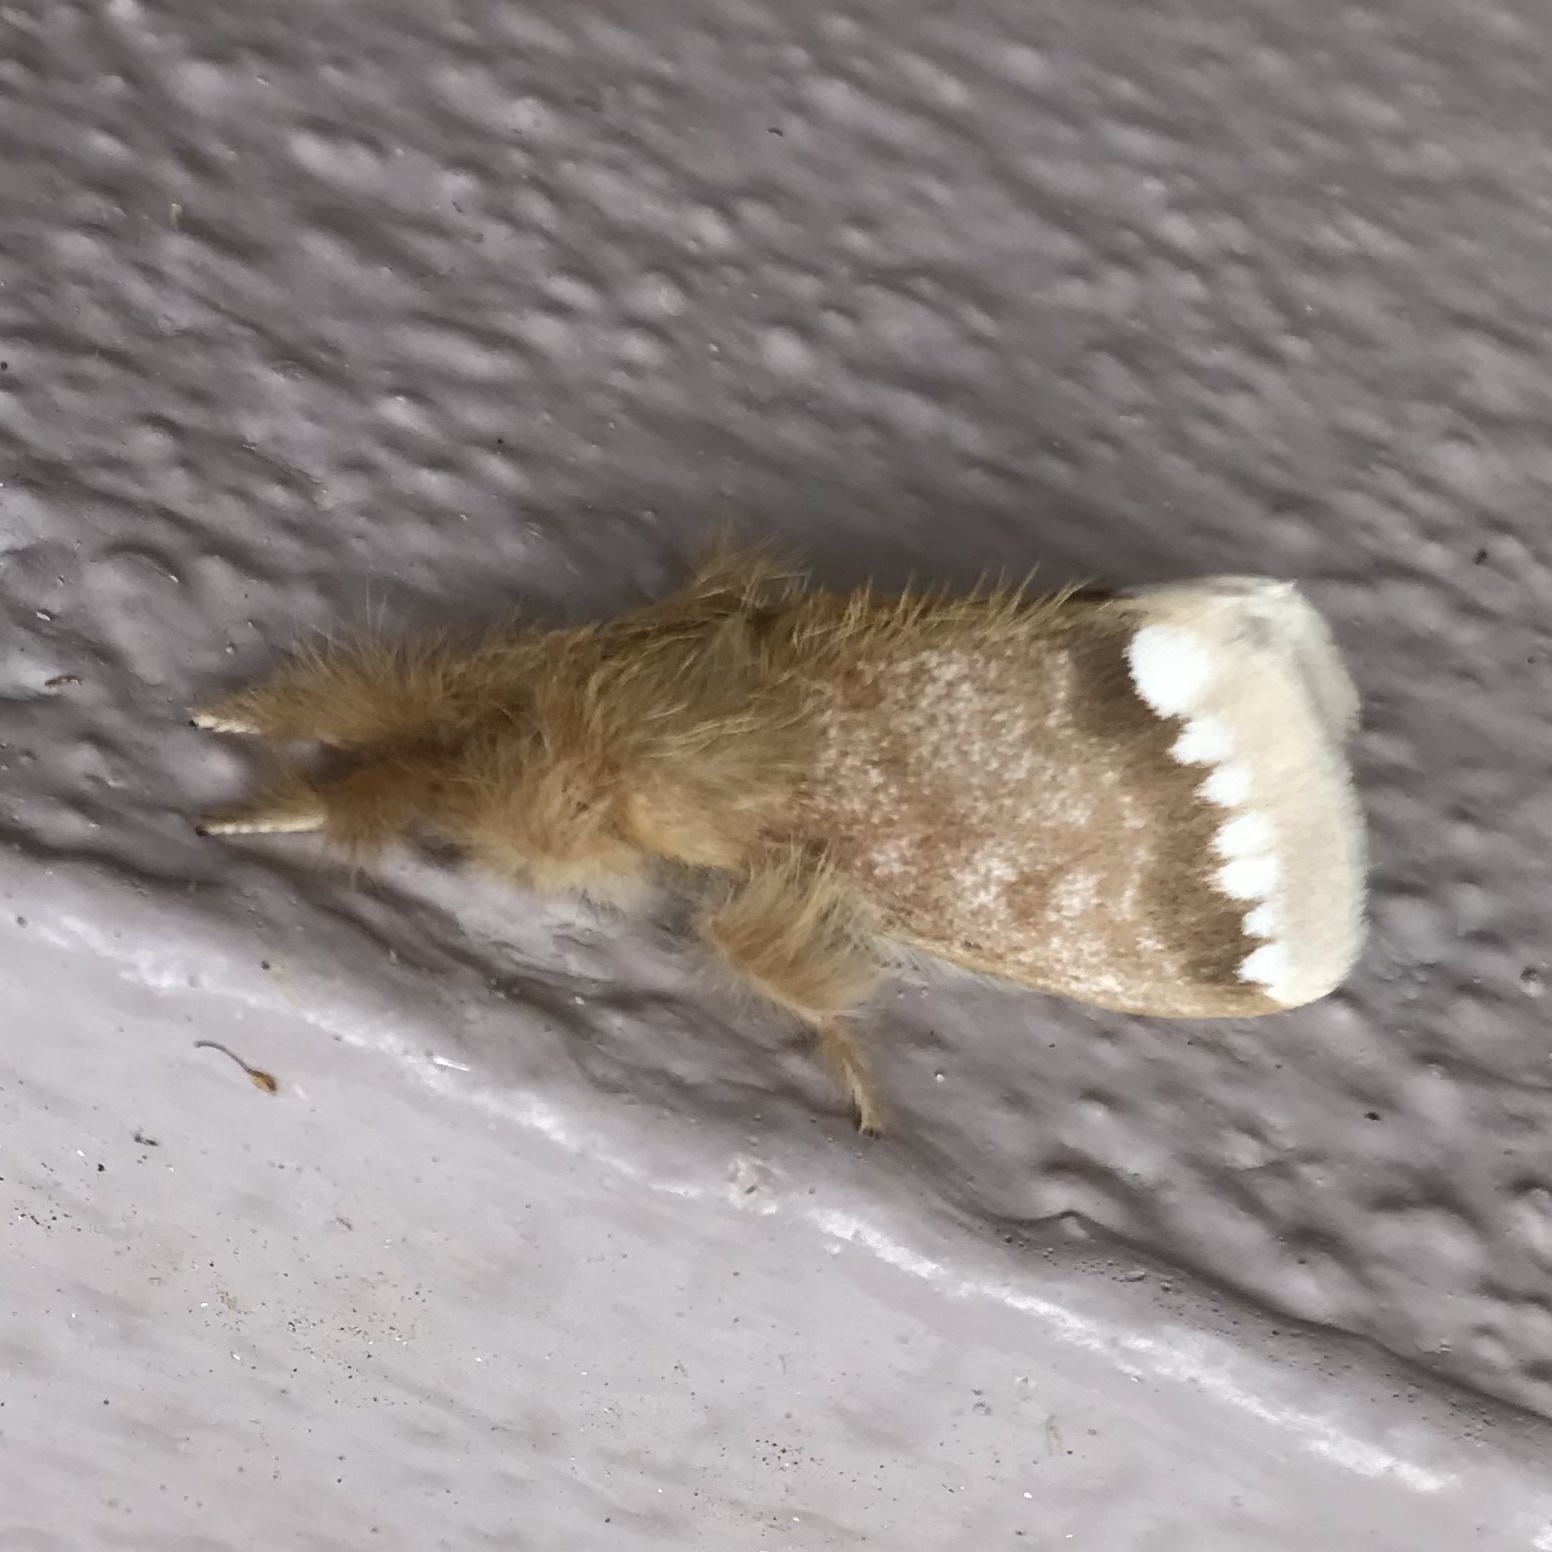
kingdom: Animalia
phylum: Arthropoda
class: Insecta
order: Lepidoptera
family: Erebidae
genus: Euproctis
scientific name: Euproctis
